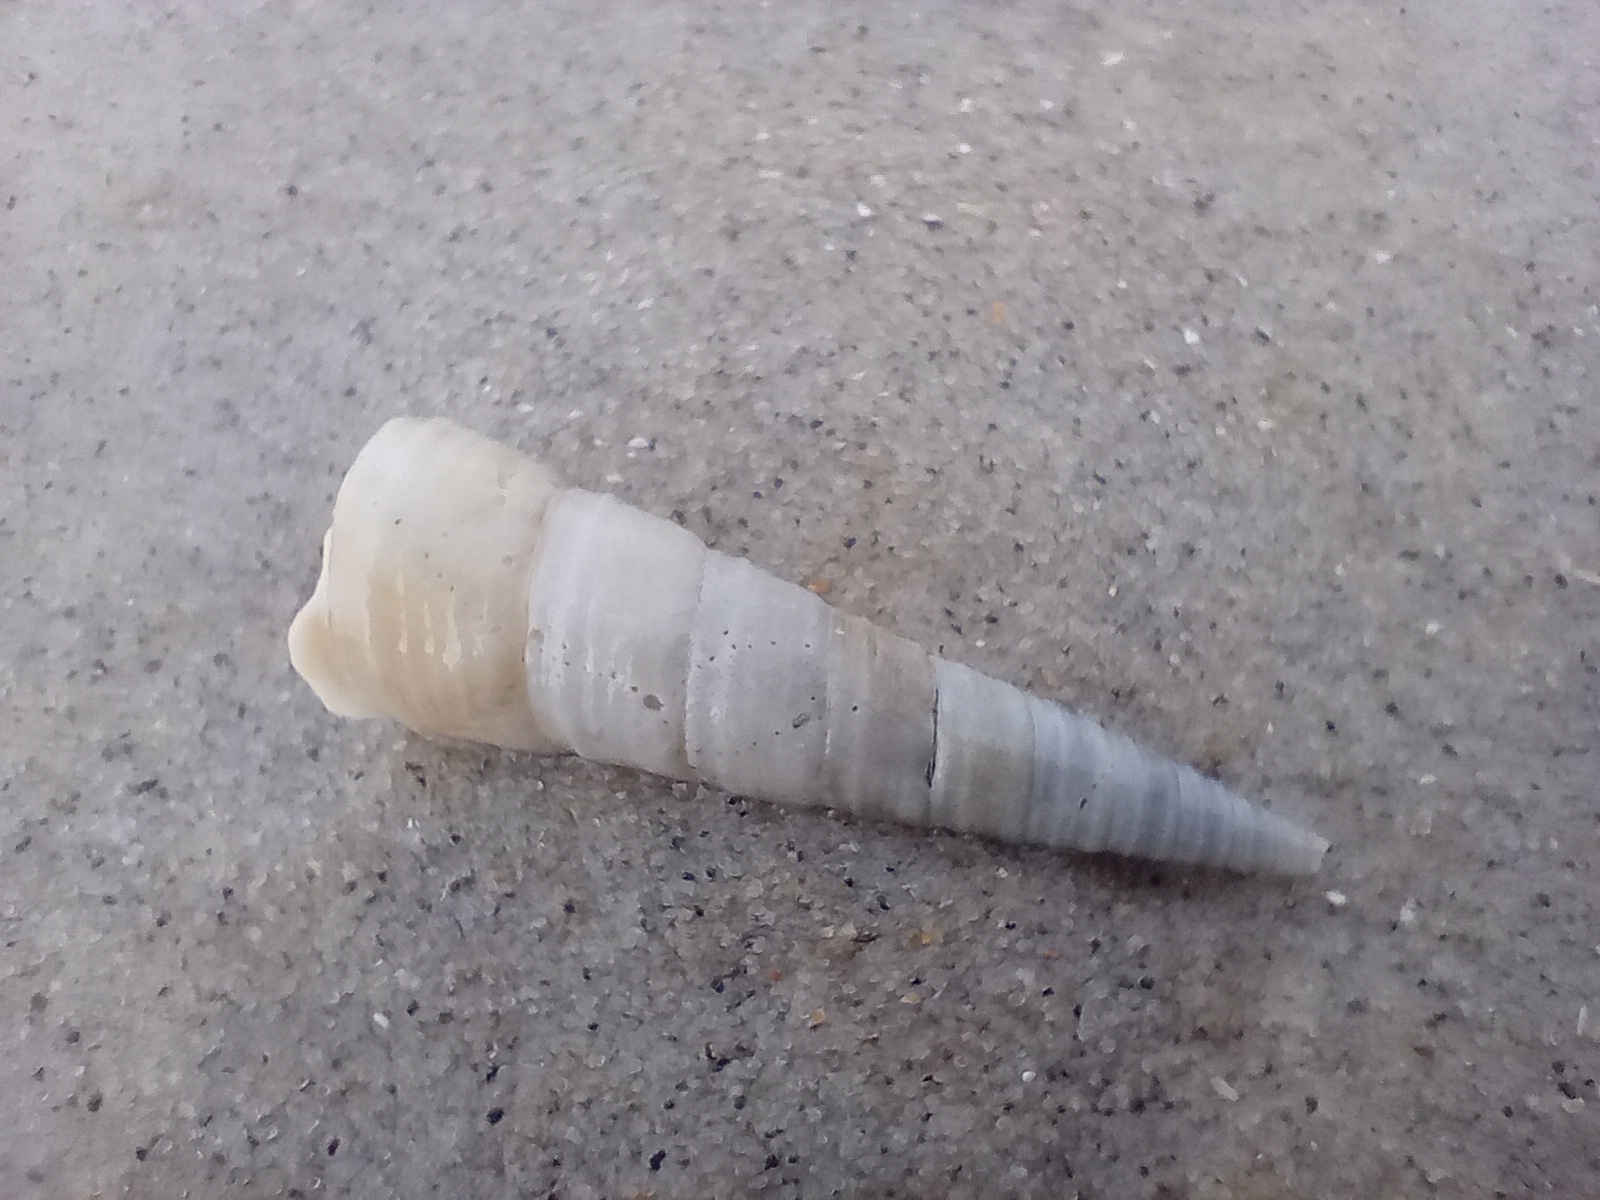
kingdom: Animalia
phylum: Mollusca
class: Gastropoda
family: Turritellidae
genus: Maoricolpus
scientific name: Maoricolpus roseus
